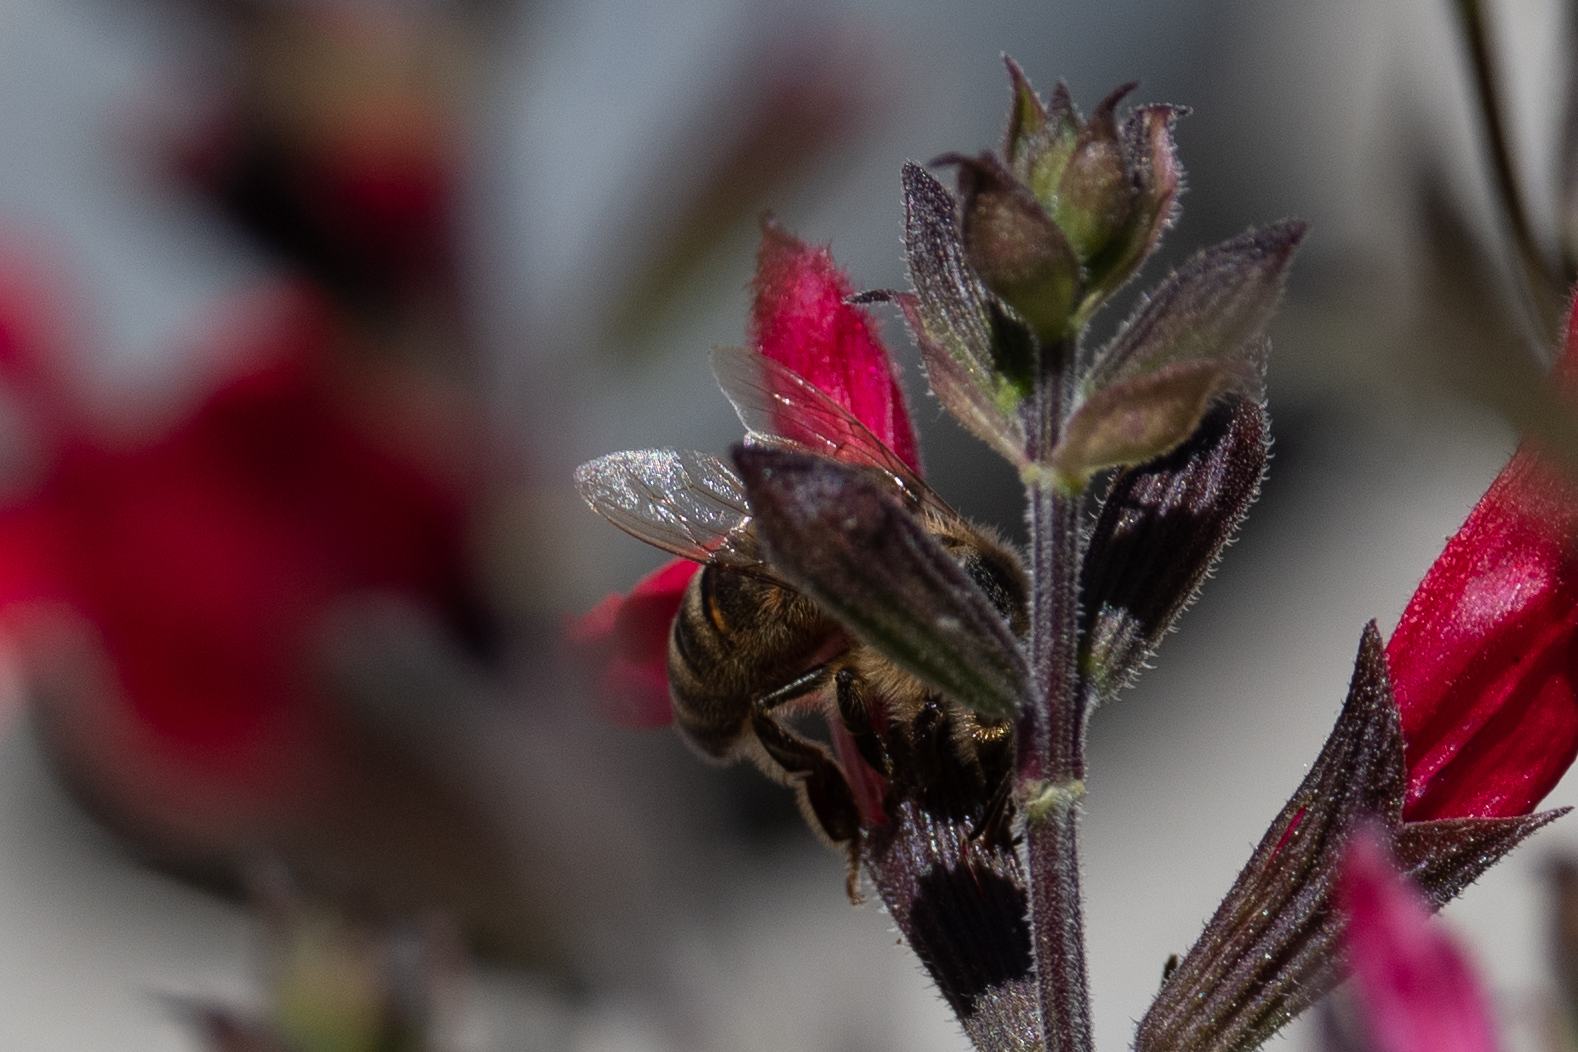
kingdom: Animalia
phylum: Arthropoda
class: Insecta
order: Hymenoptera
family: Apidae
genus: Apis
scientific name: Apis mellifera
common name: Honey bee
